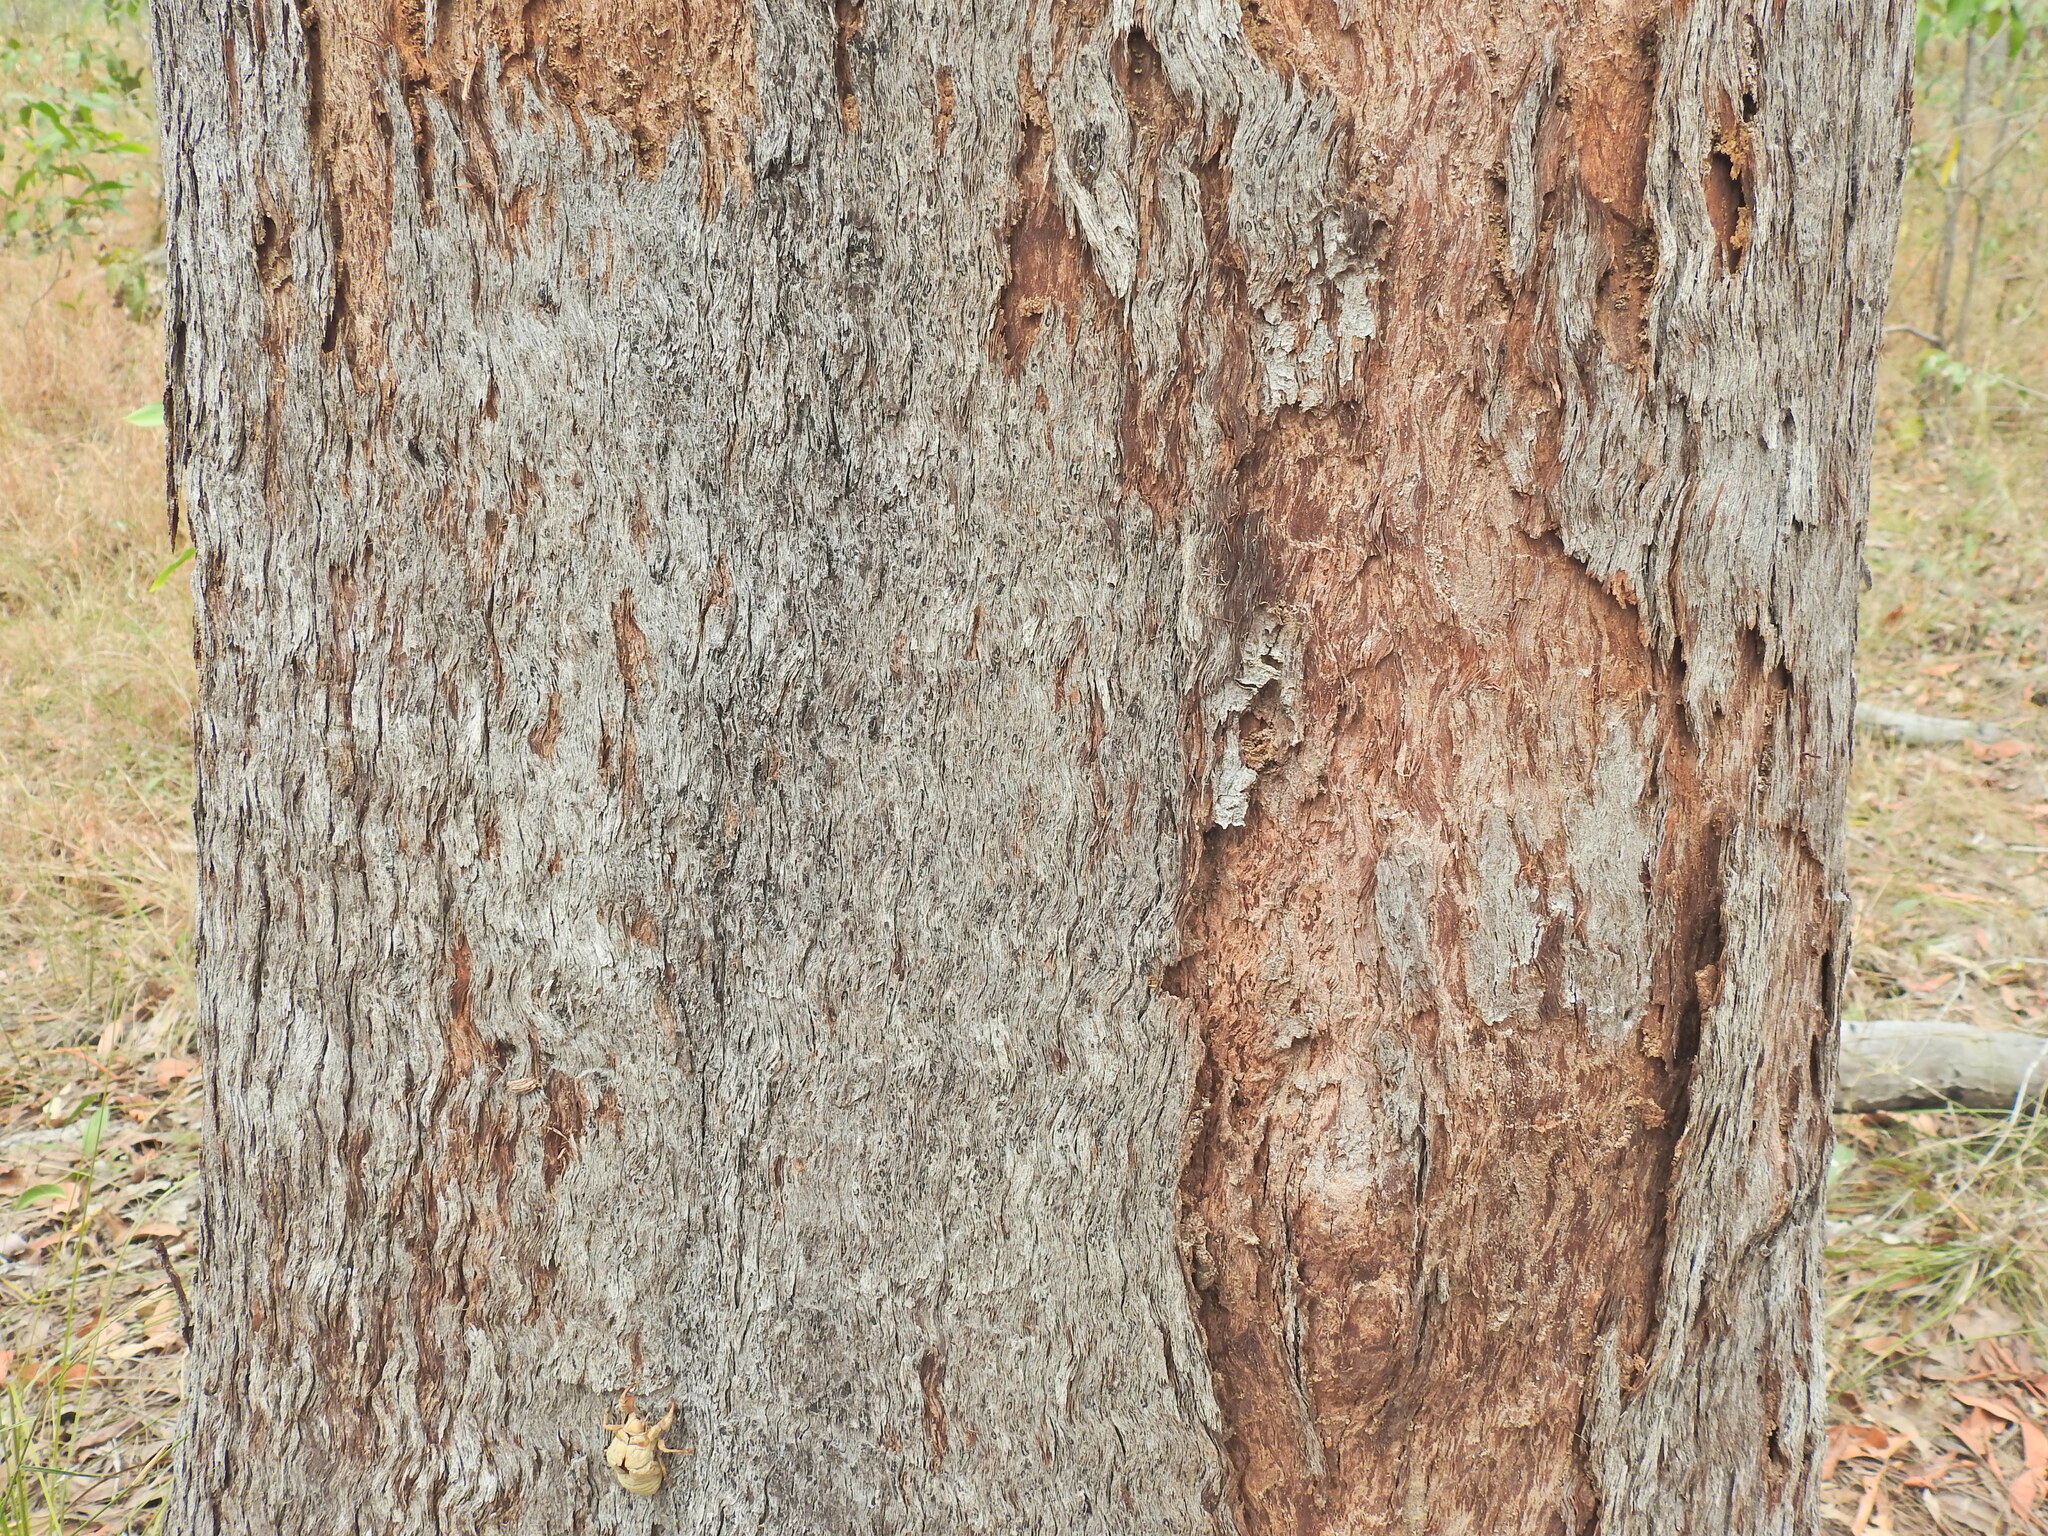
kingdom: Plantae
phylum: Tracheophyta
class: Magnoliopsida
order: Myrtales
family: Myrtaceae
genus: Eucalyptus
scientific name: Eucalyptus exserta
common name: Peppermint-bendo
